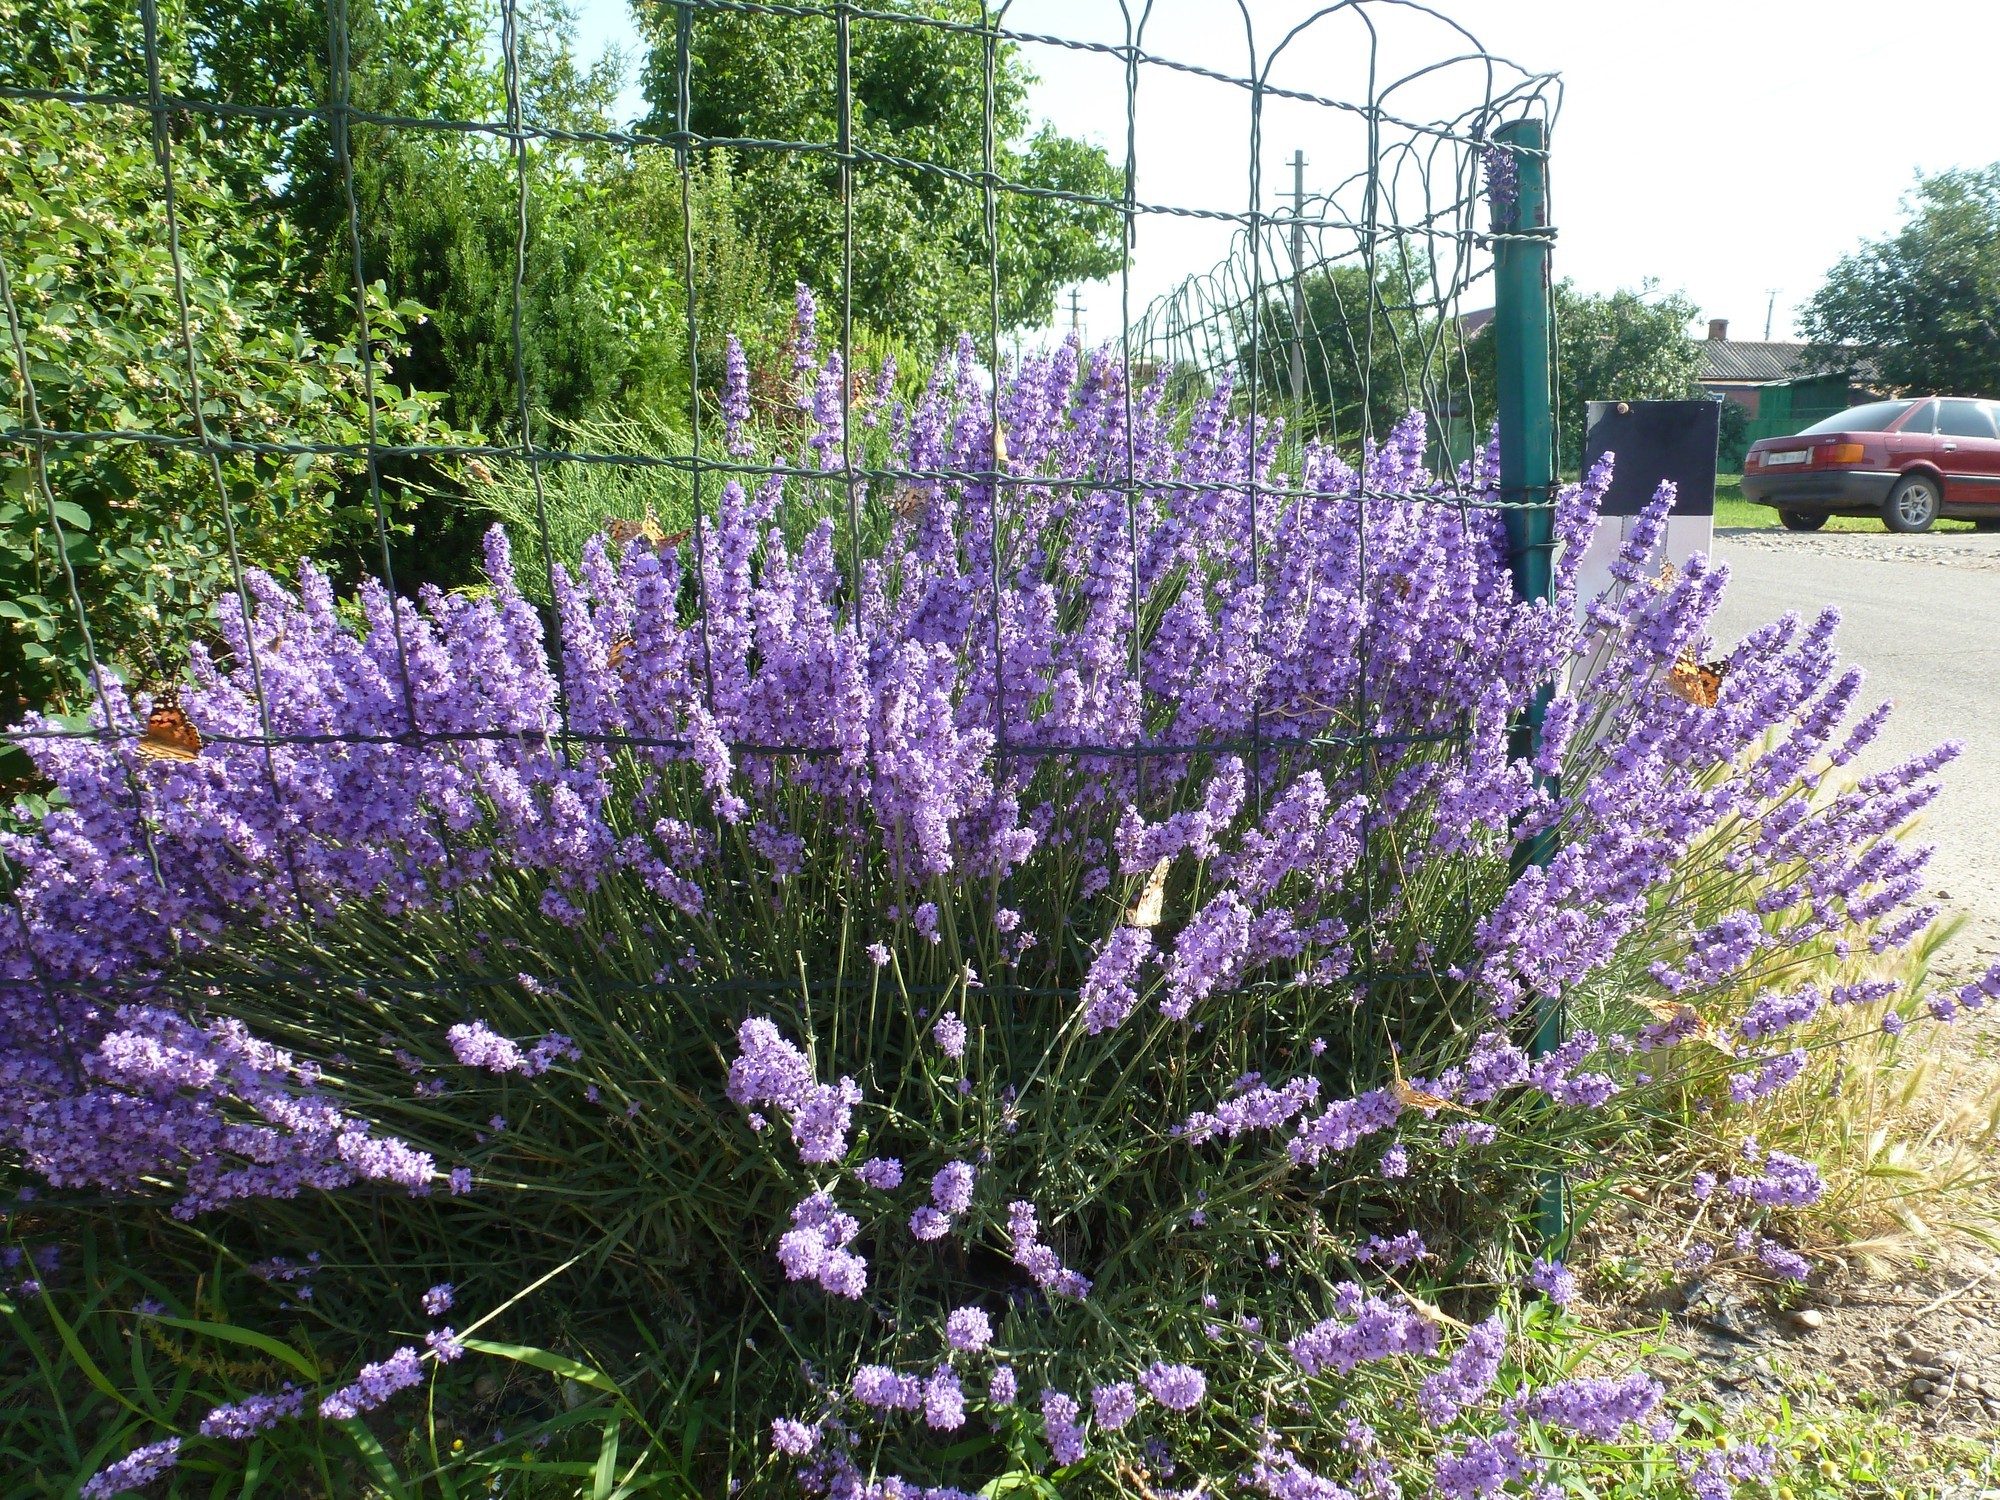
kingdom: Animalia
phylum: Arthropoda
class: Insecta
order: Lepidoptera
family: Nymphalidae
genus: Vanessa
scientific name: Vanessa cardui
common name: Painted lady
